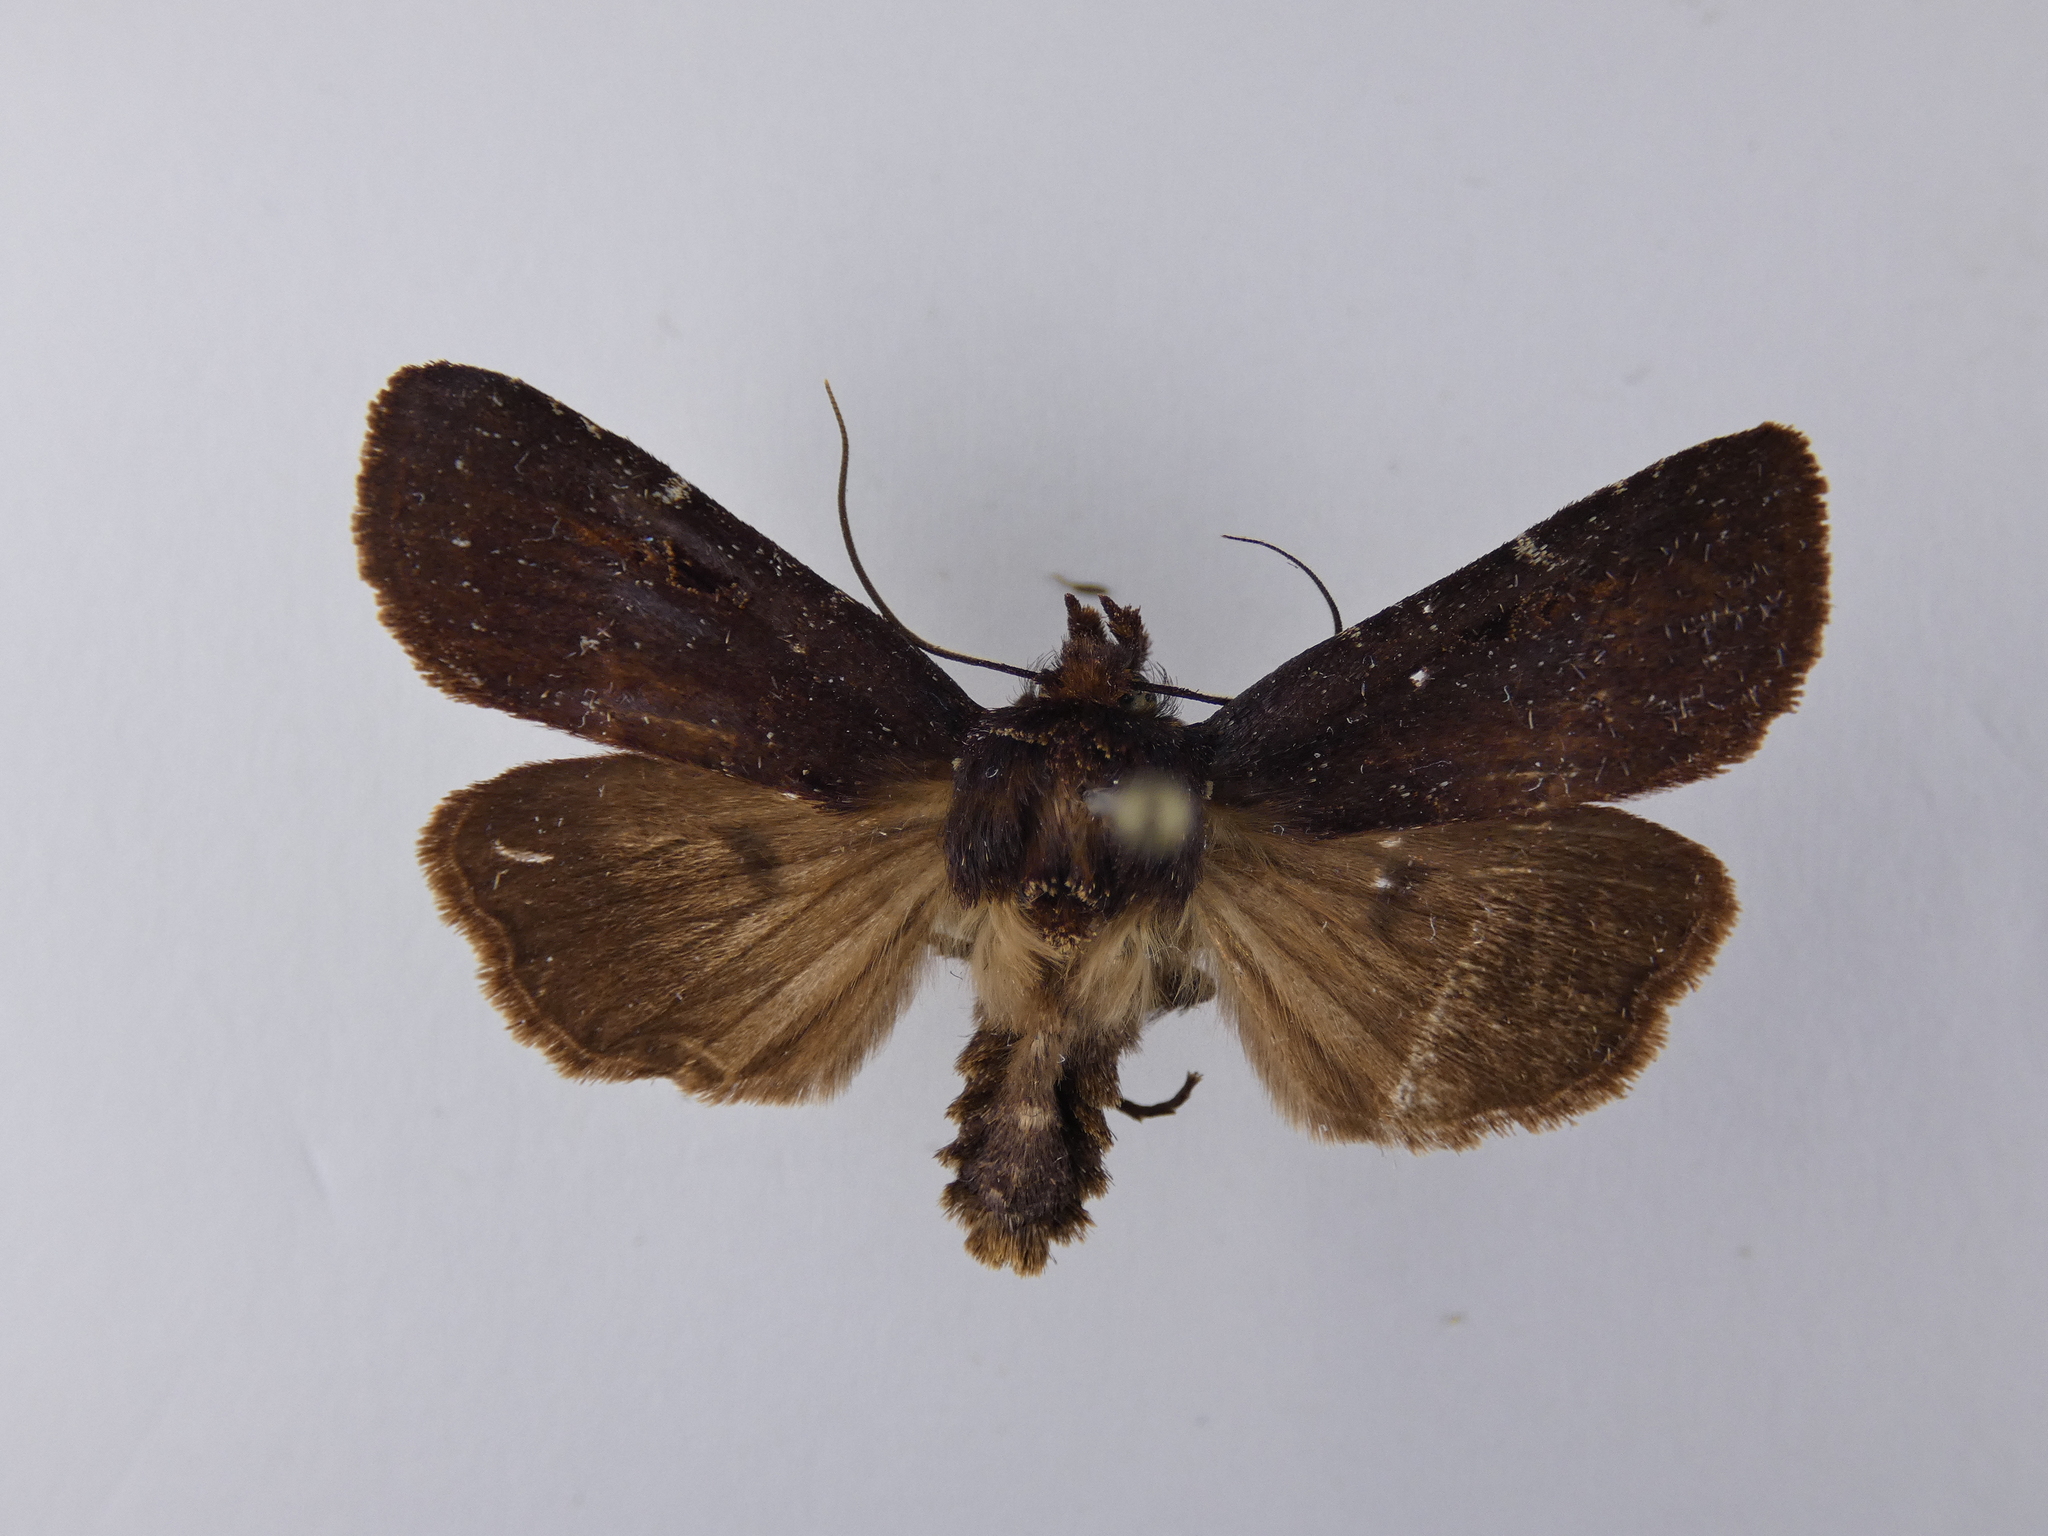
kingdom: Animalia
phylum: Arthropoda
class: Insecta
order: Lepidoptera
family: Noctuidae
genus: Austramathes
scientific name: Austramathes purpurea
